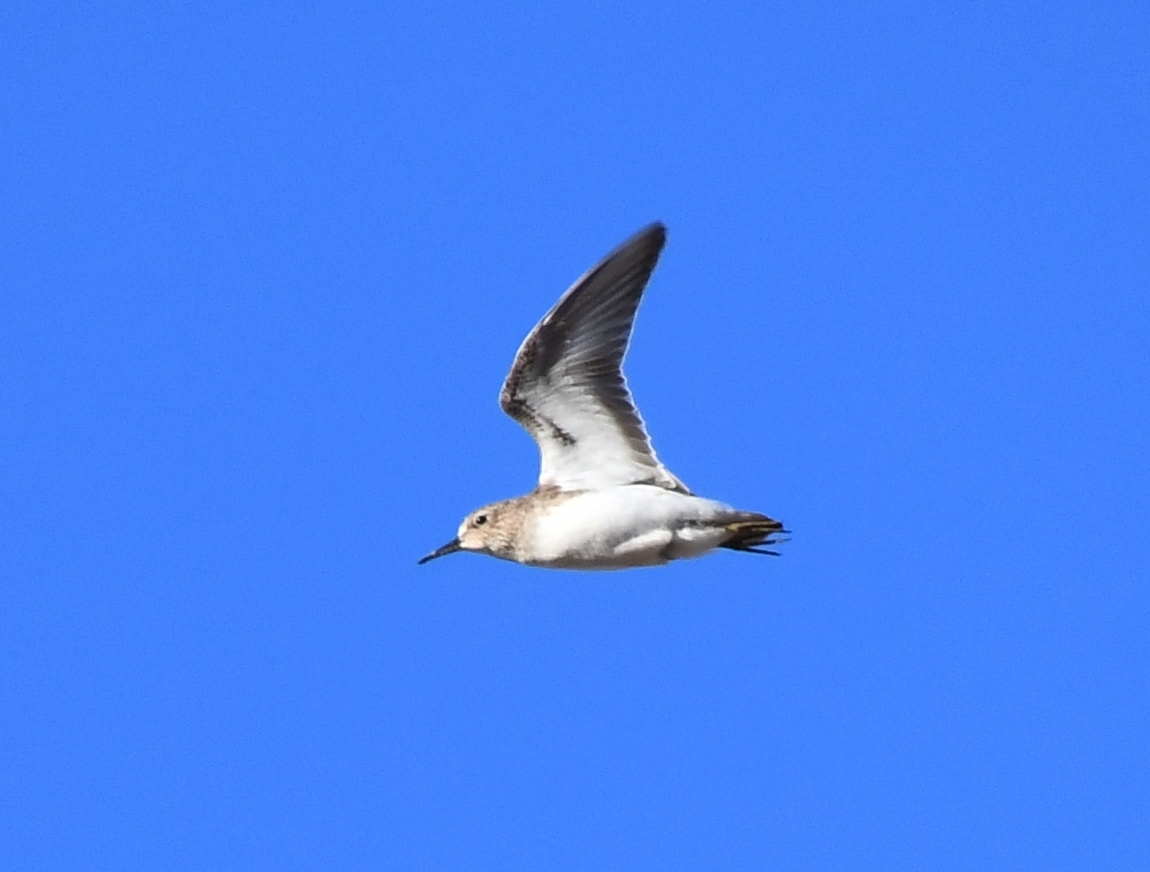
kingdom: Animalia
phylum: Chordata
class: Aves
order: Charadriiformes
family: Scolopacidae
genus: Calidris
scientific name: Calidris minutilla
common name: Least sandpiper
